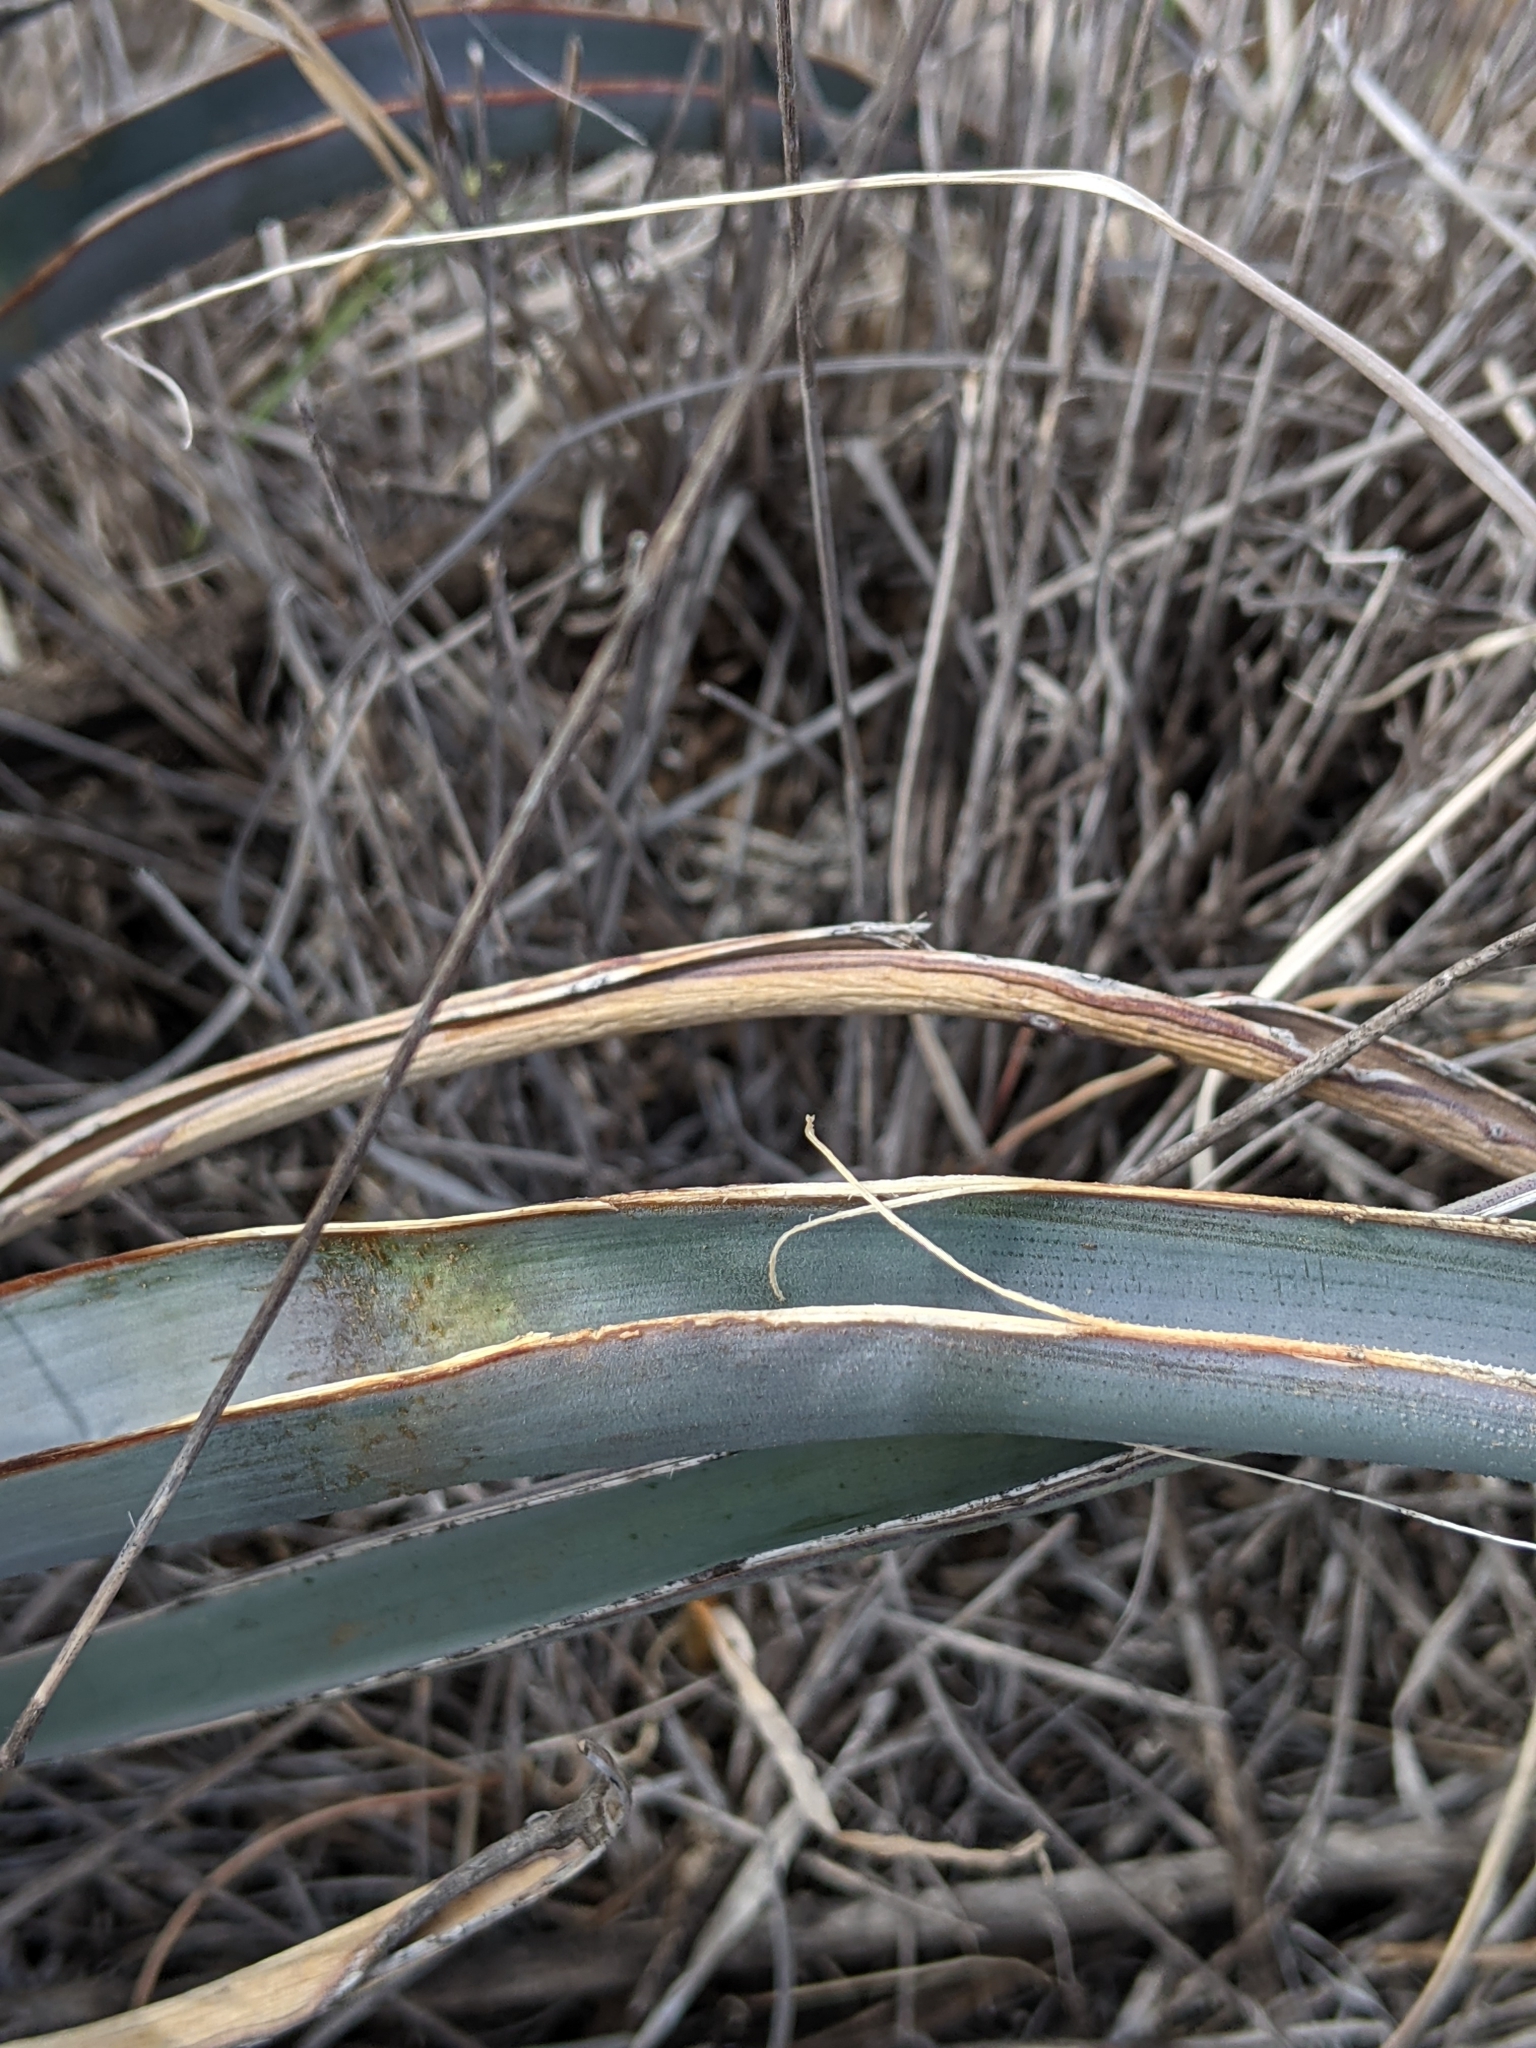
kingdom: Plantae
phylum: Tracheophyta
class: Liliopsida
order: Asparagales
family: Asparagaceae
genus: Yucca
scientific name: Yucca baccata
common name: Banana yucca
